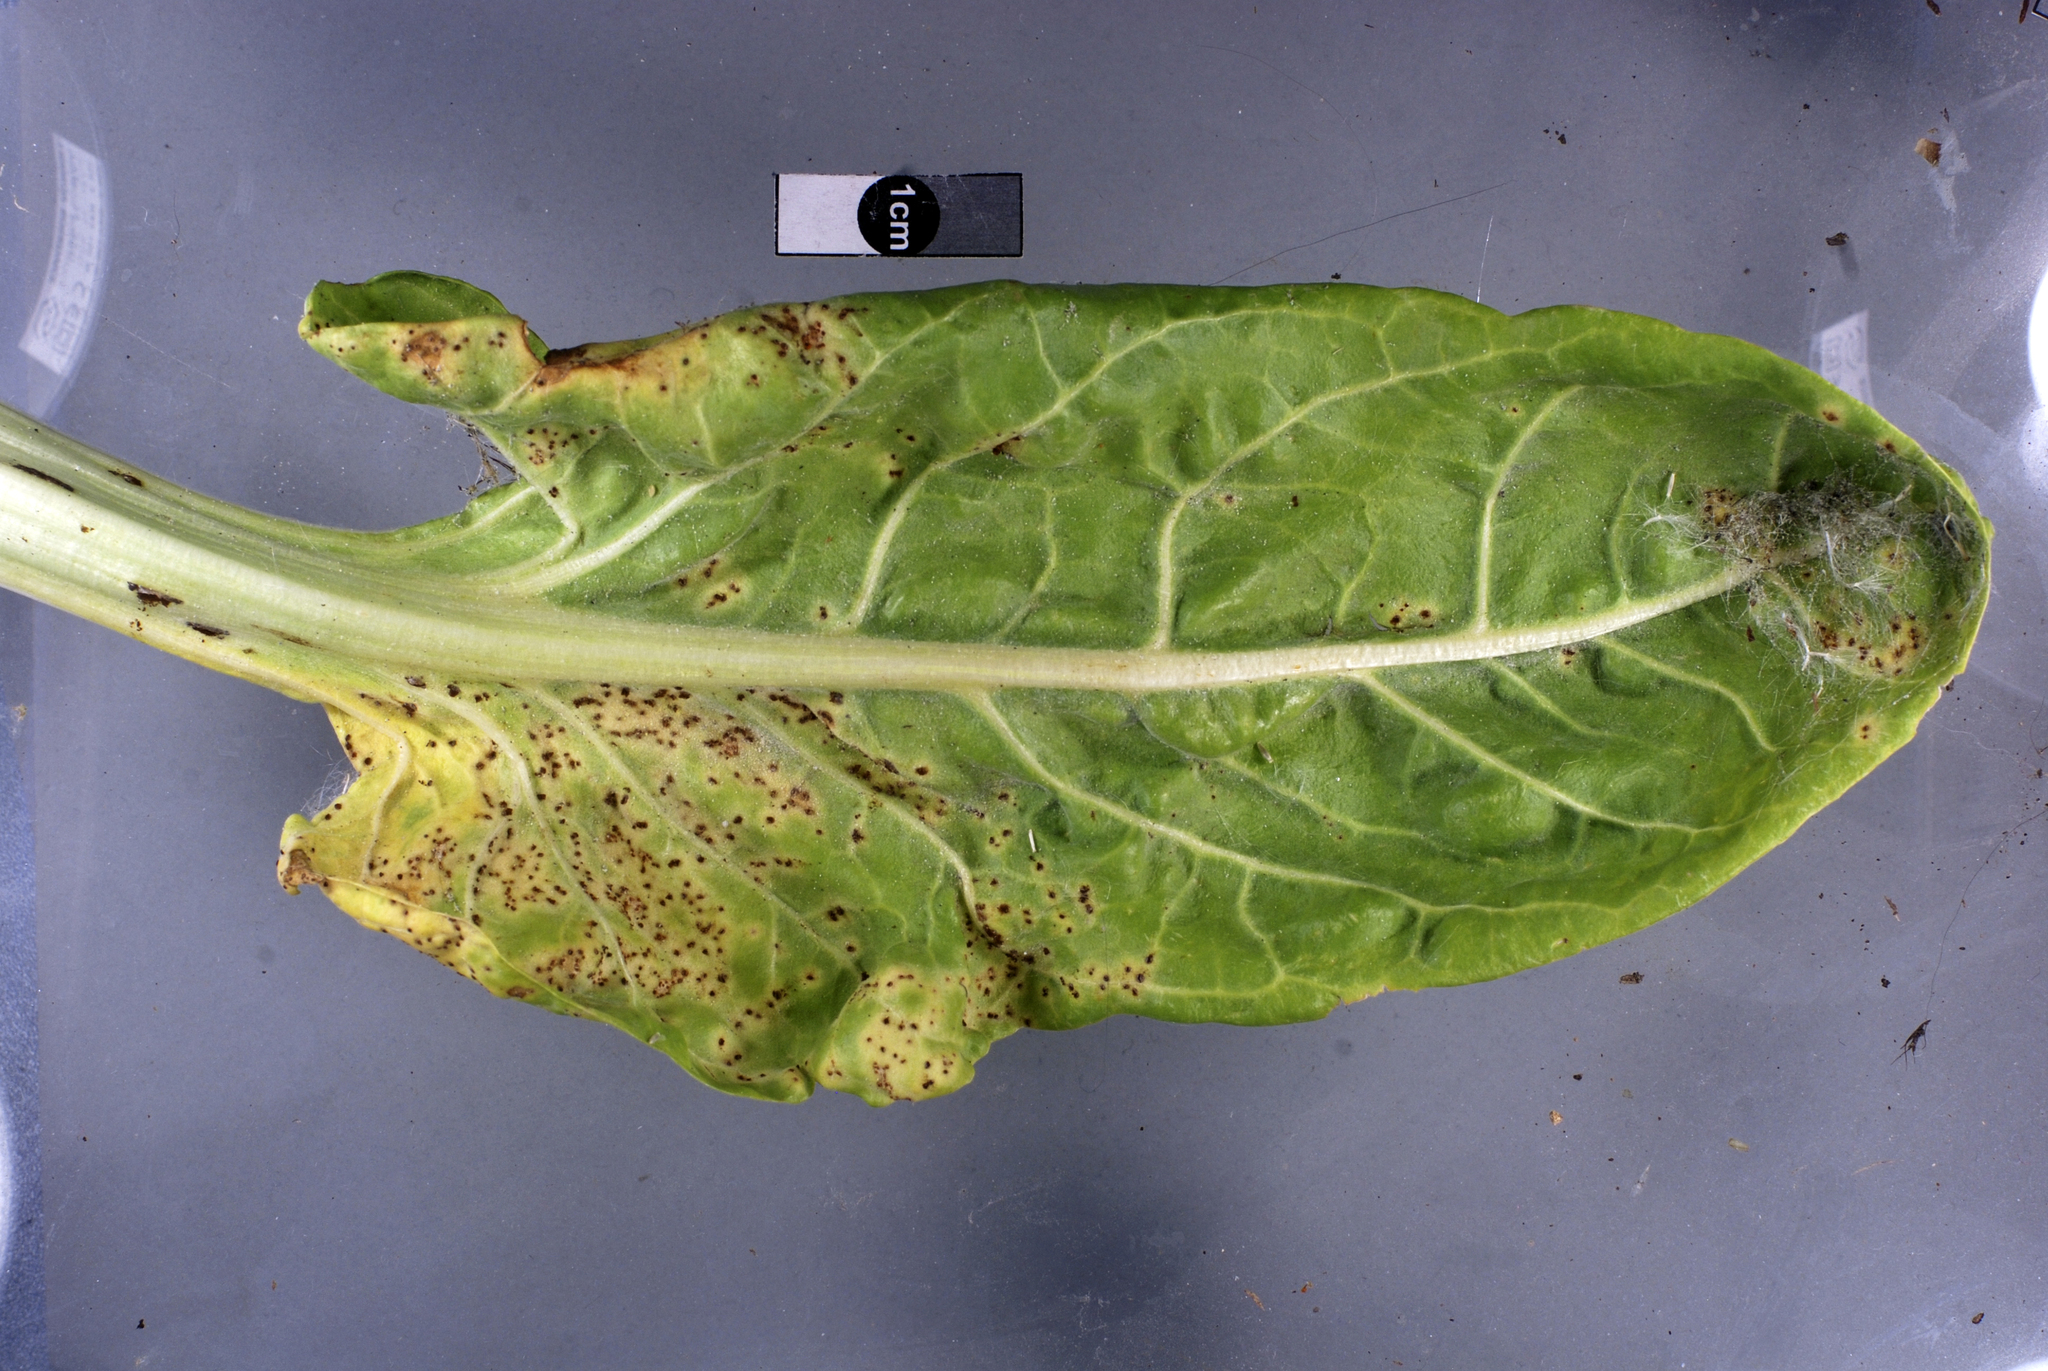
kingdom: Fungi
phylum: Basidiomycota
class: Pucciniomycetes
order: Pucciniales
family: Pucciniaceae
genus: Uromyces
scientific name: Uromyces betae
